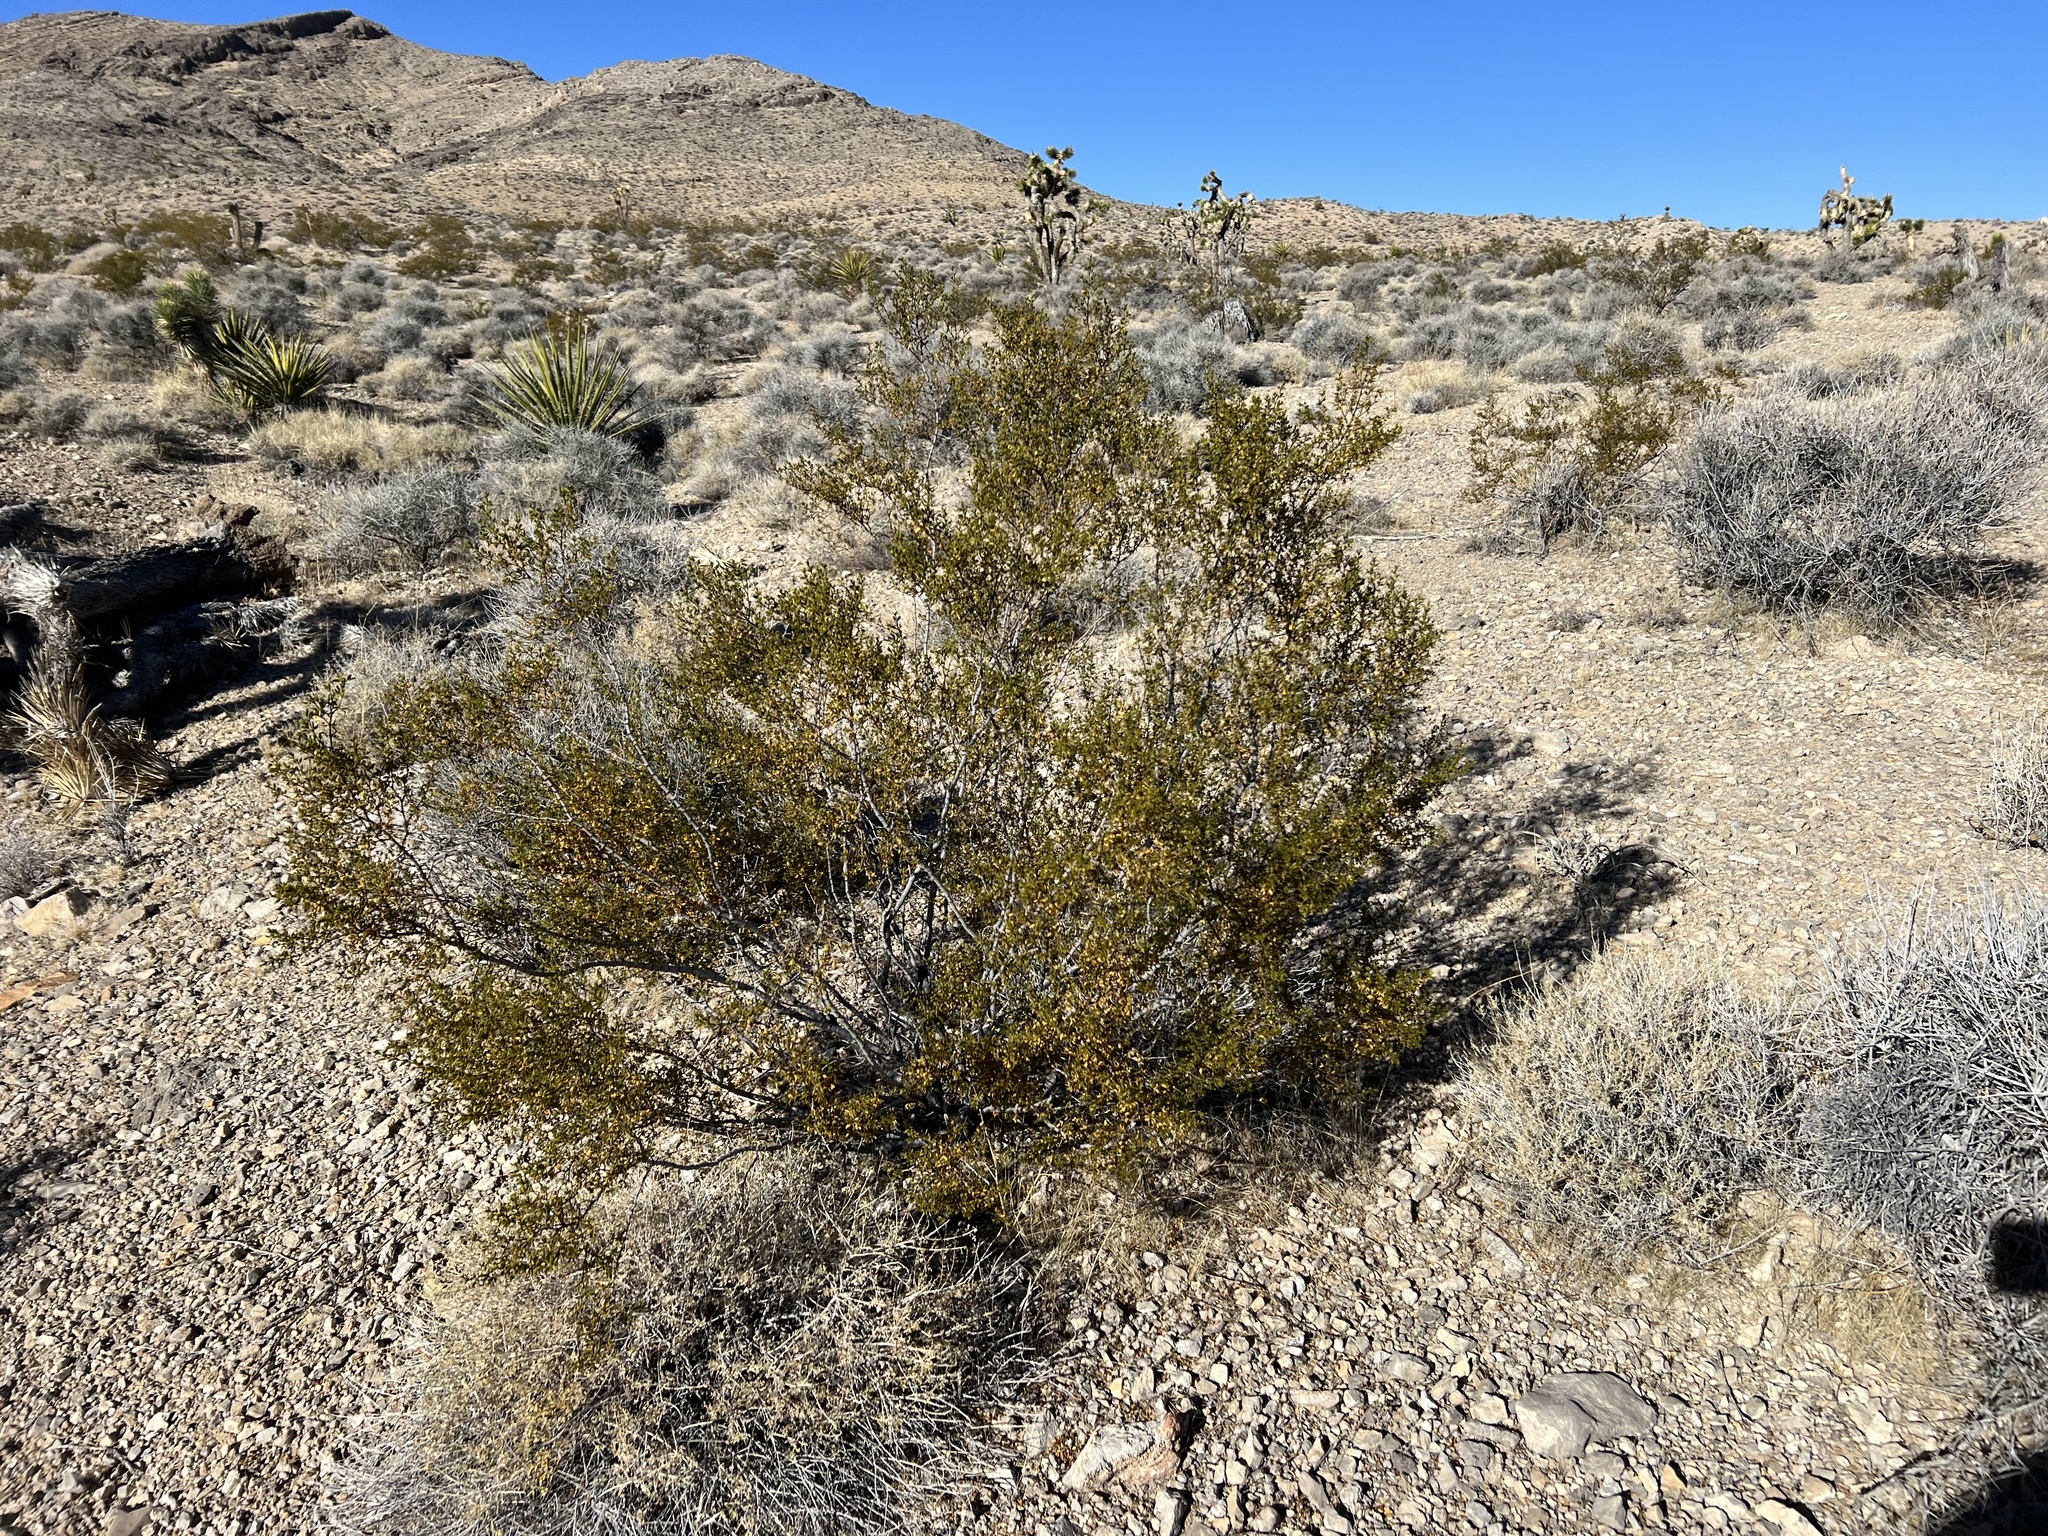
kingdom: Plantae
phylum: Tracheophyta
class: Magnoliopsida
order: Zygophyllales
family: Zygophyllaceae
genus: Larrea
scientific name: Larrea tridentata
